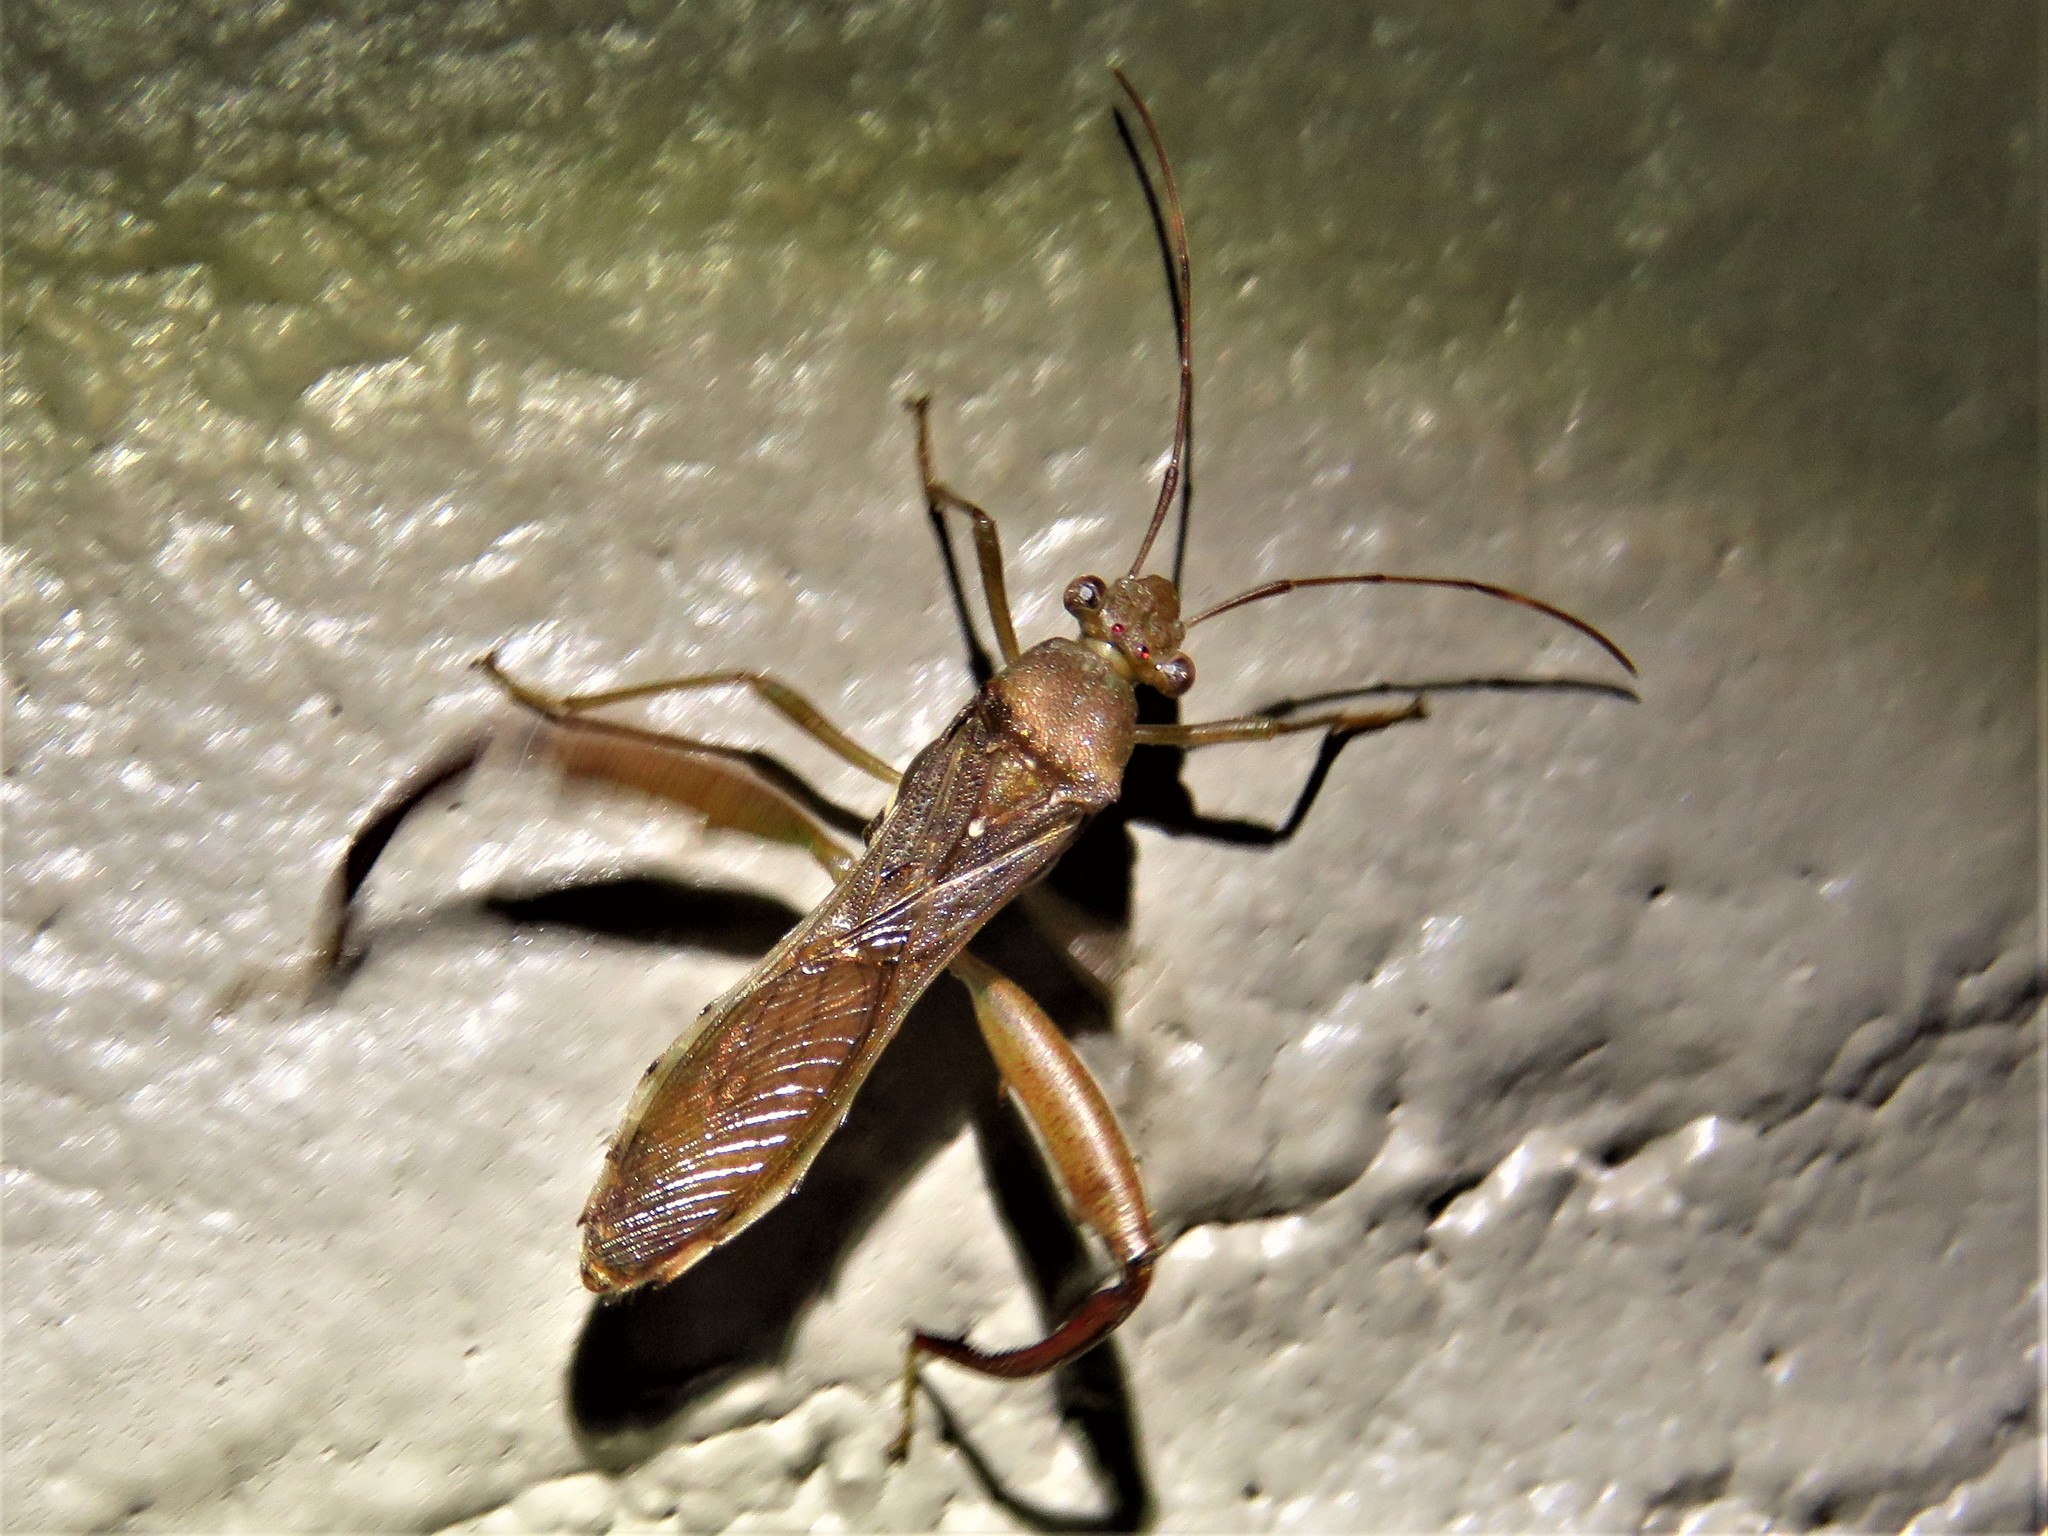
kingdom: Animalia
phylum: Arthropoda
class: Insecta
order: Hemiptera
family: Alydidae
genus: Hyalymenus
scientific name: Hyalymenus tarsatus
